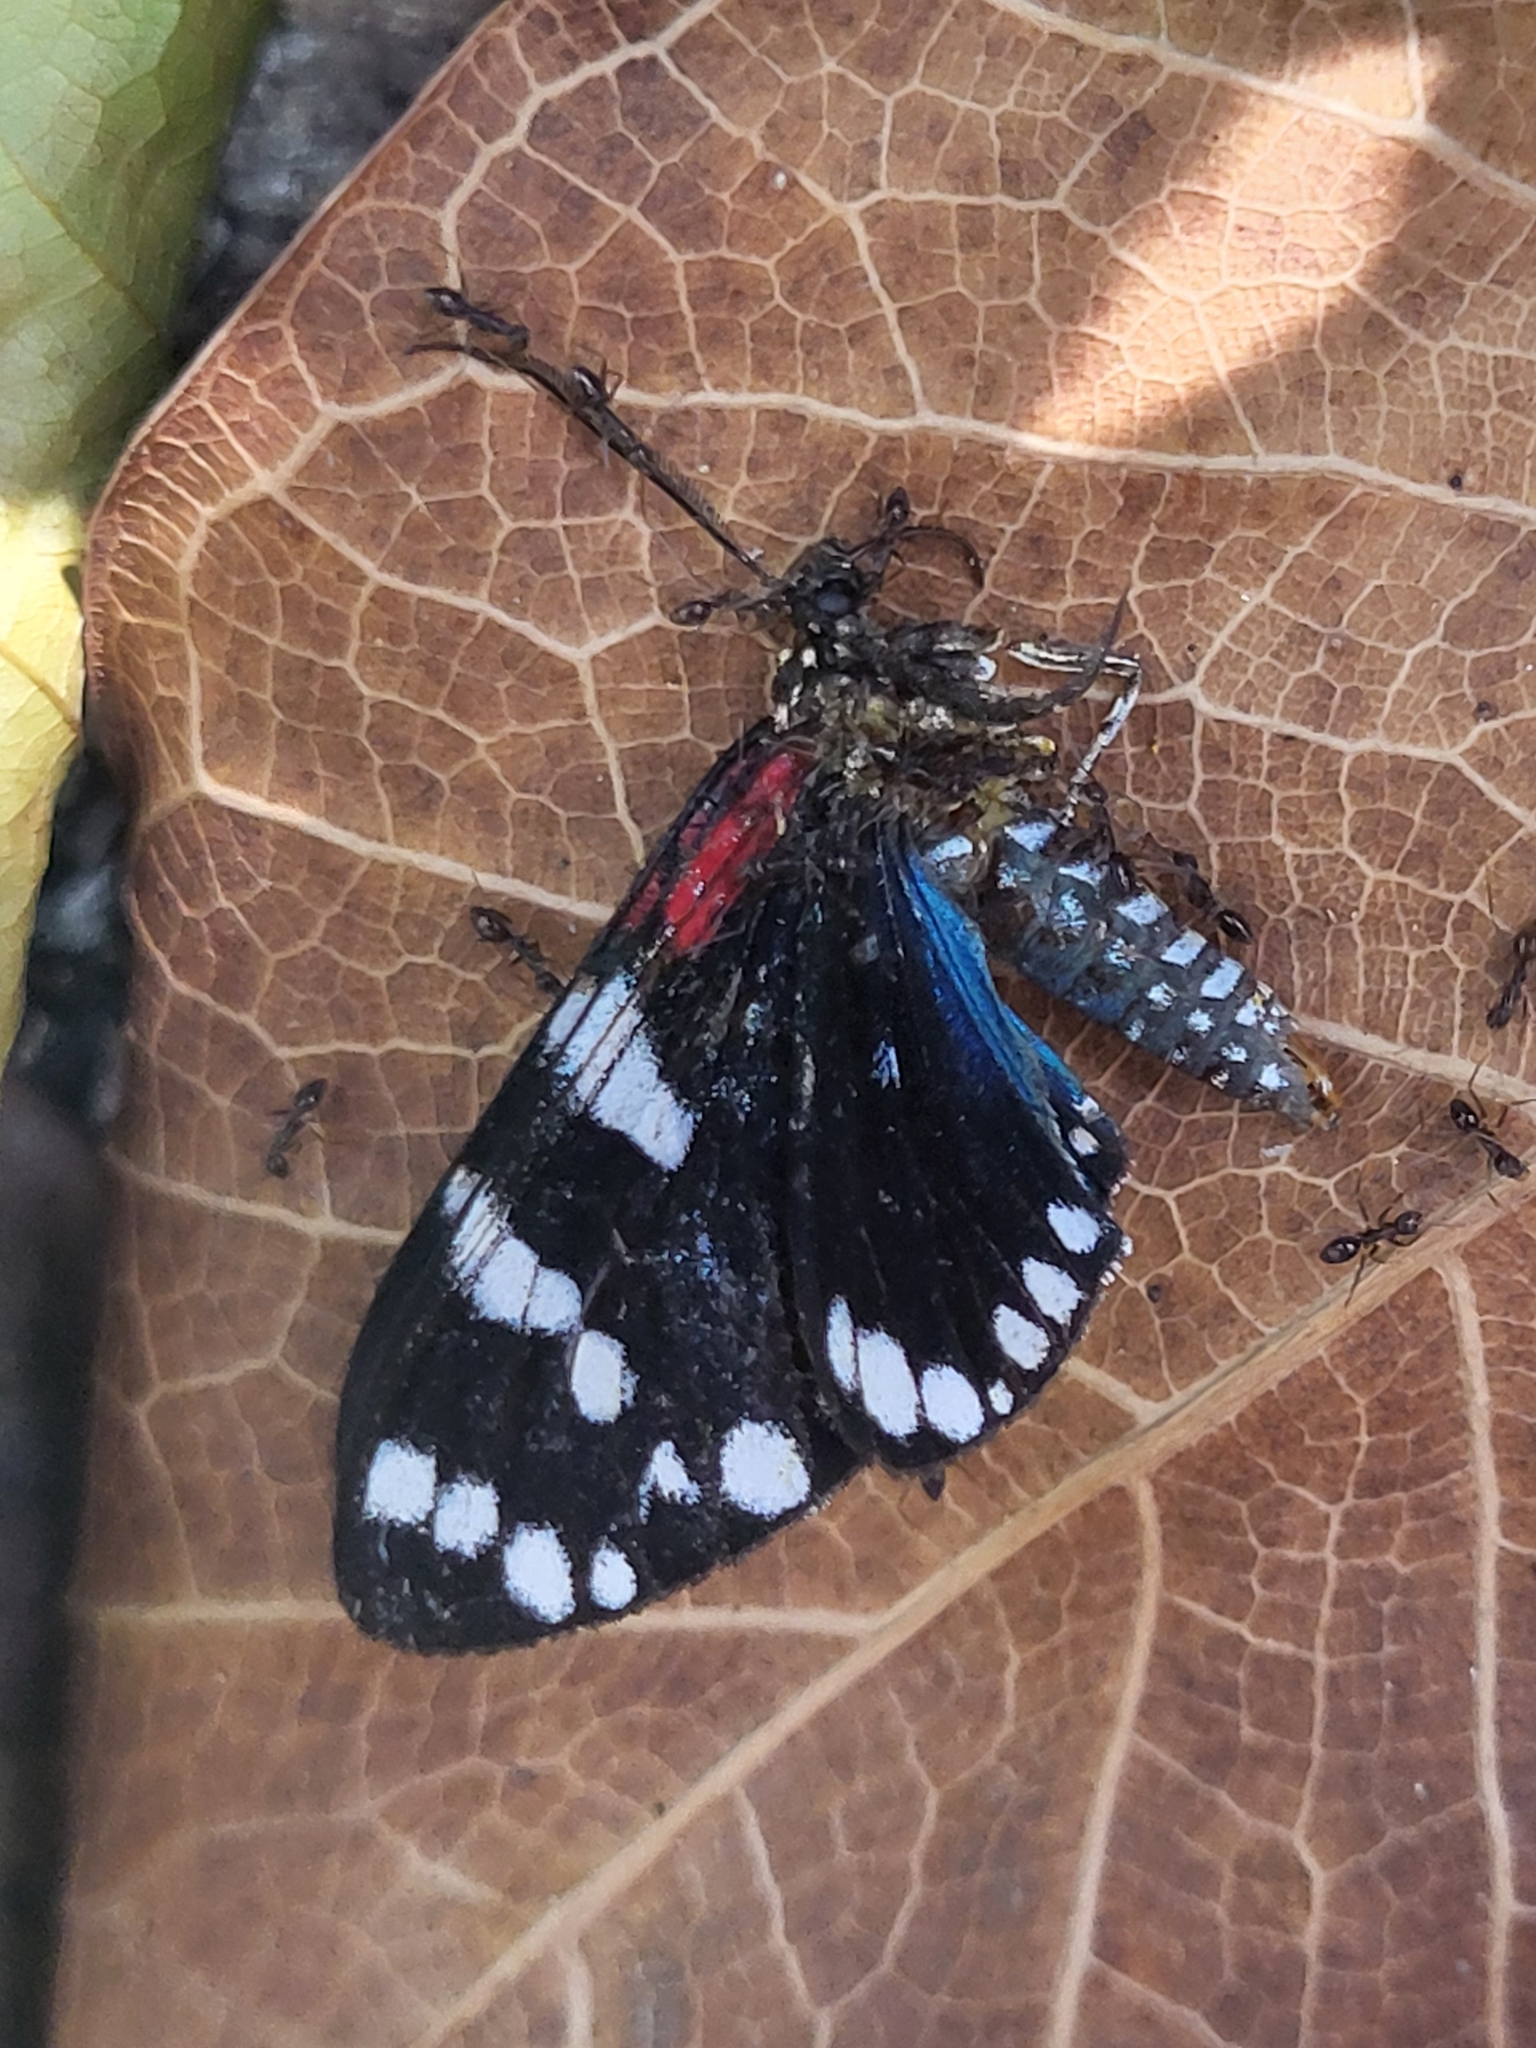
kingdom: Animalia
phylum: Arthropoda
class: Insecta
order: Lepidoptera
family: Erebidae
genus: Composia
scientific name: Composia fidelissima
